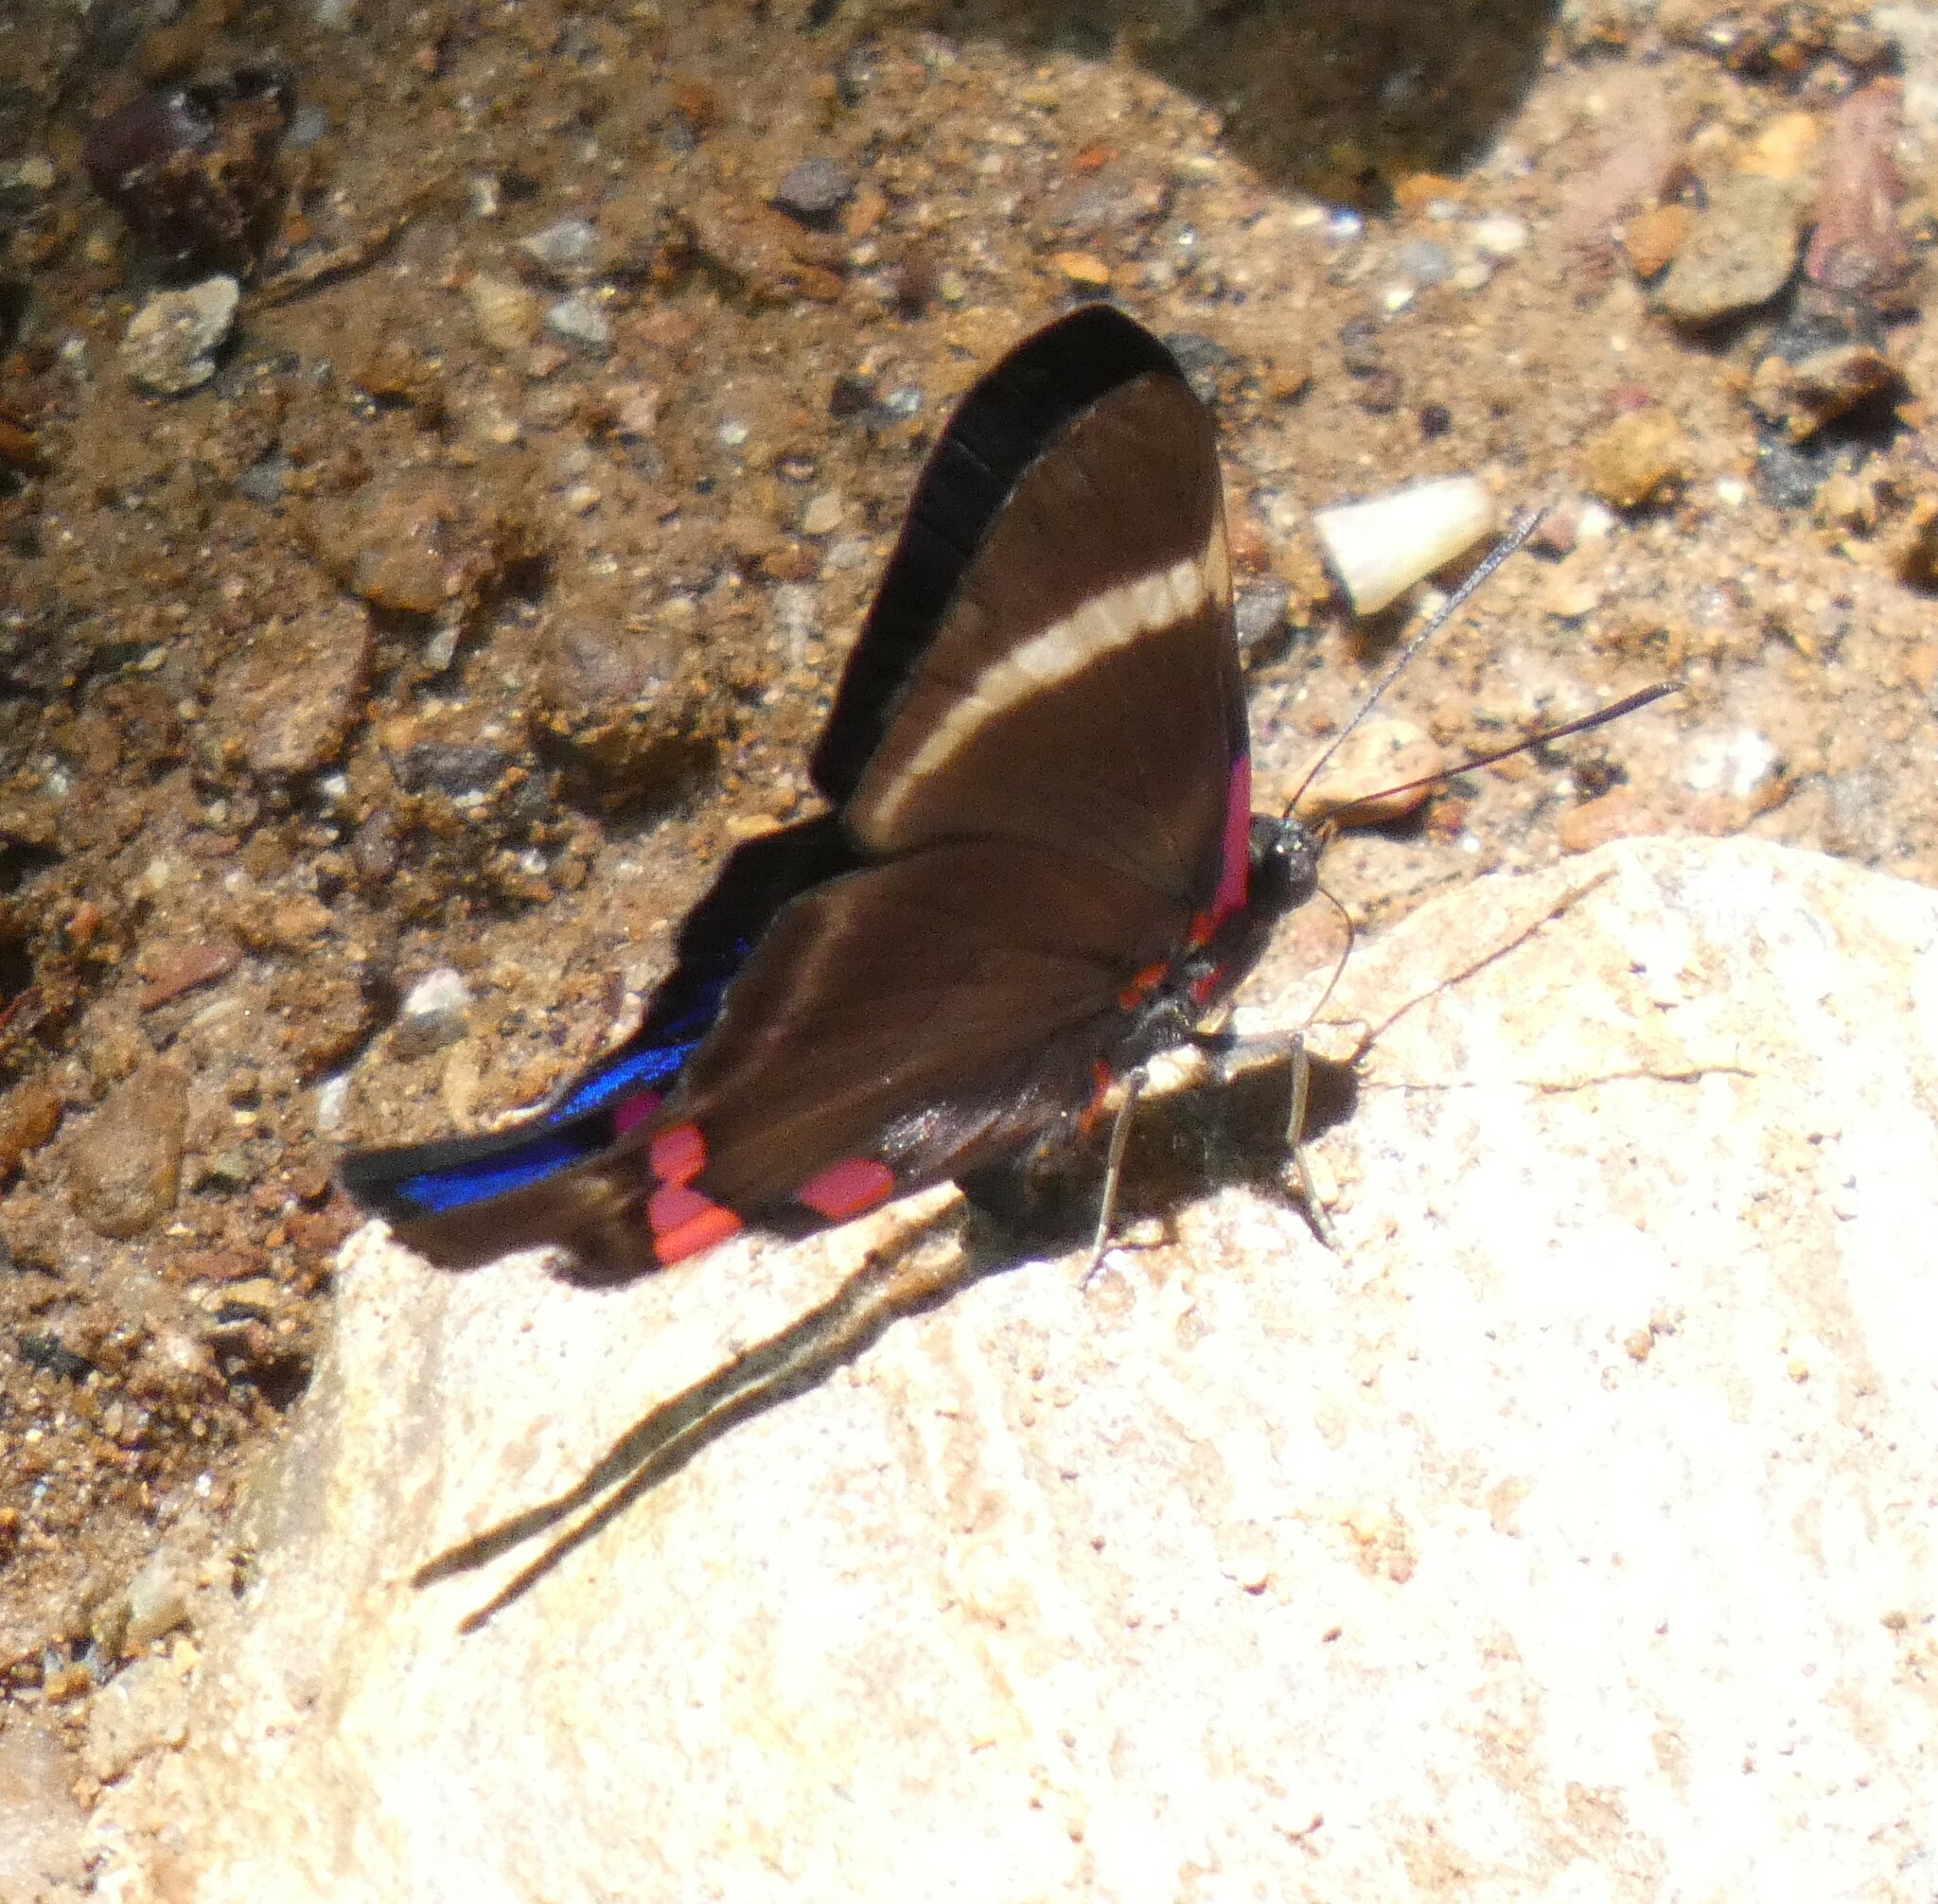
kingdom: Animalia
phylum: Arthropoda
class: Insecta
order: Lepidoptera
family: Riodinidae
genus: Rhetus
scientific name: Rhetus periander
